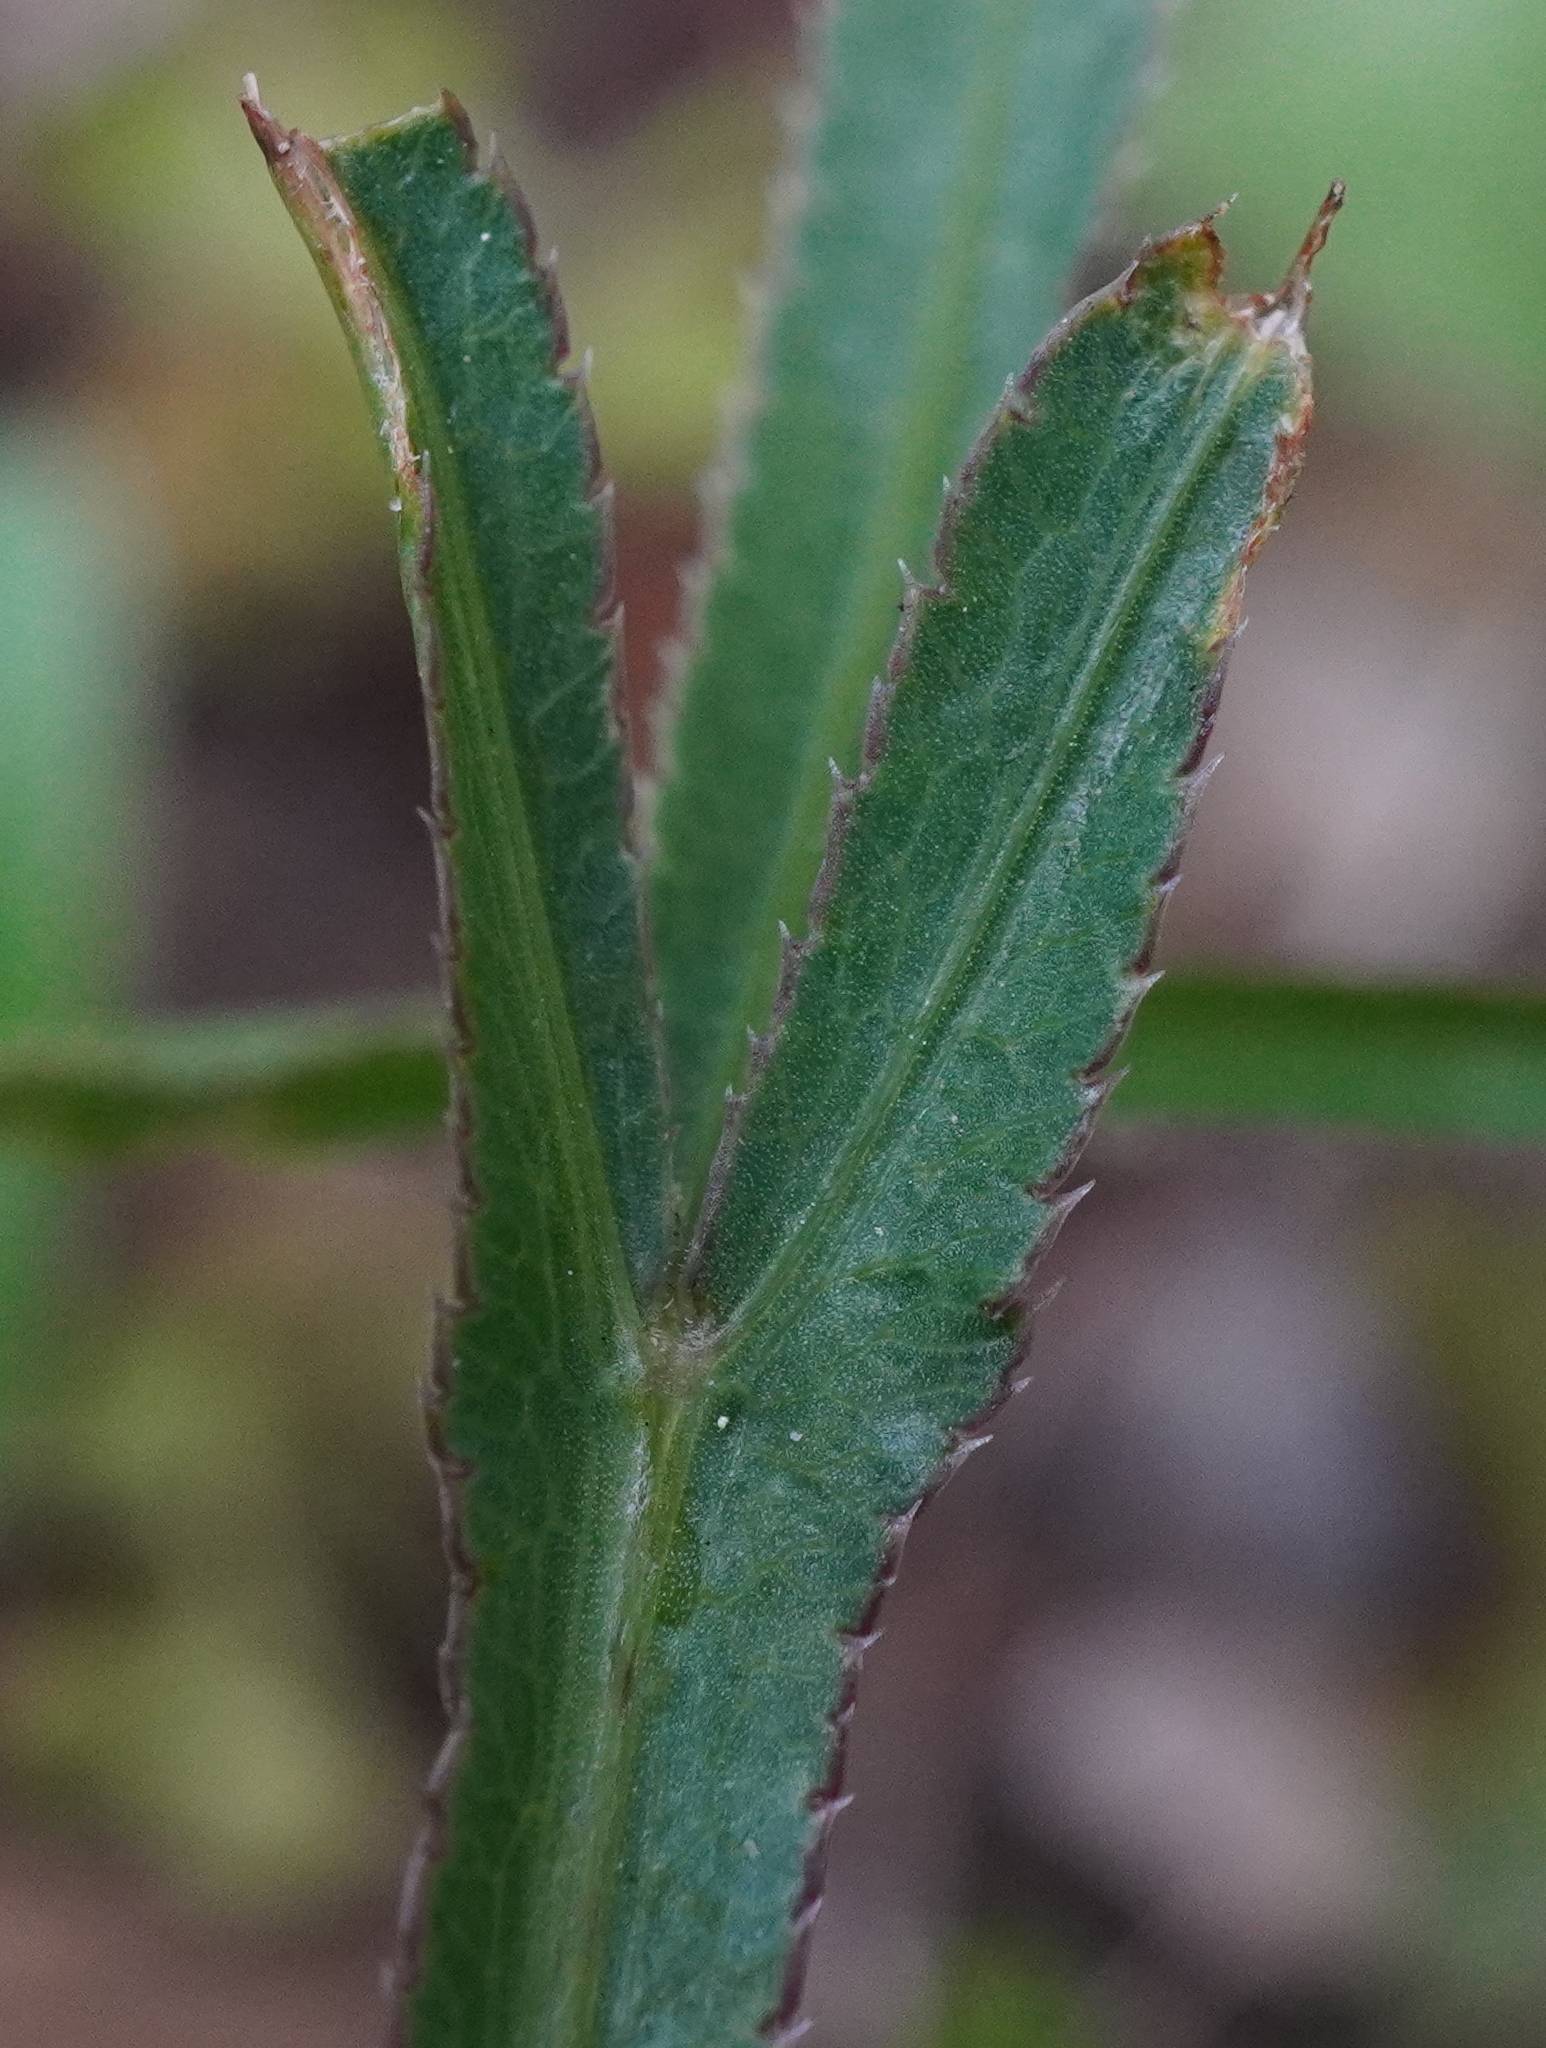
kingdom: Plantae
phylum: Tracheophyta
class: Magnoliopsida
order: Apiales
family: Apiaceae
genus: Falcaria
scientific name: Falcaria vulgaris
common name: Longleaf
